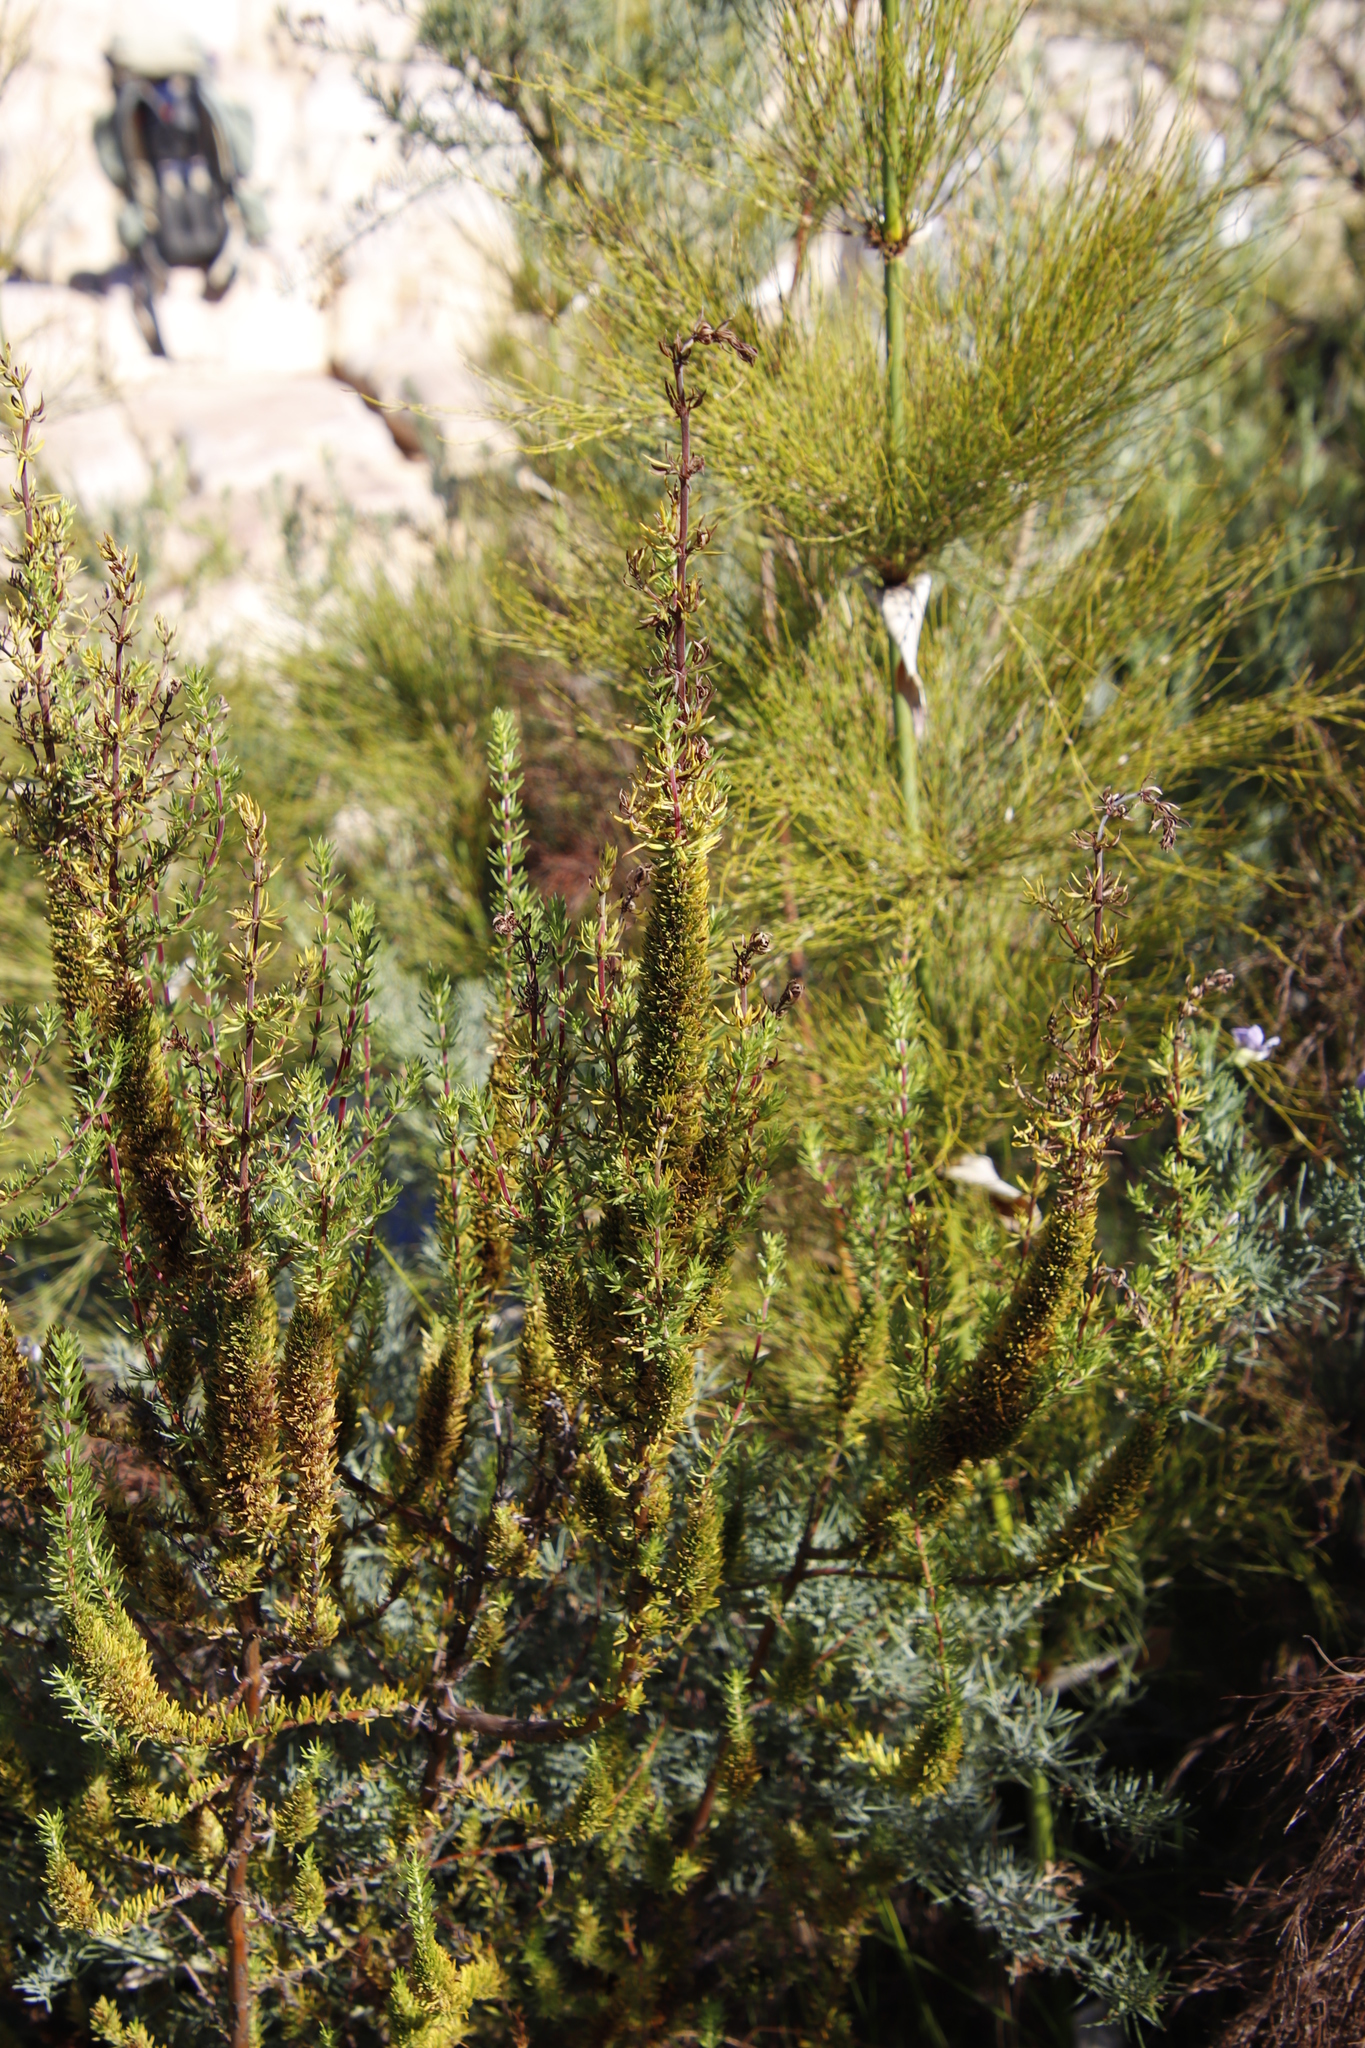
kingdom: Plantae
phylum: Tracheophyta
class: Magnoliopsida
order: Gentianales
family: Rubiaceae
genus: Anthospermum
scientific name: Anthospermum aethiopicum
